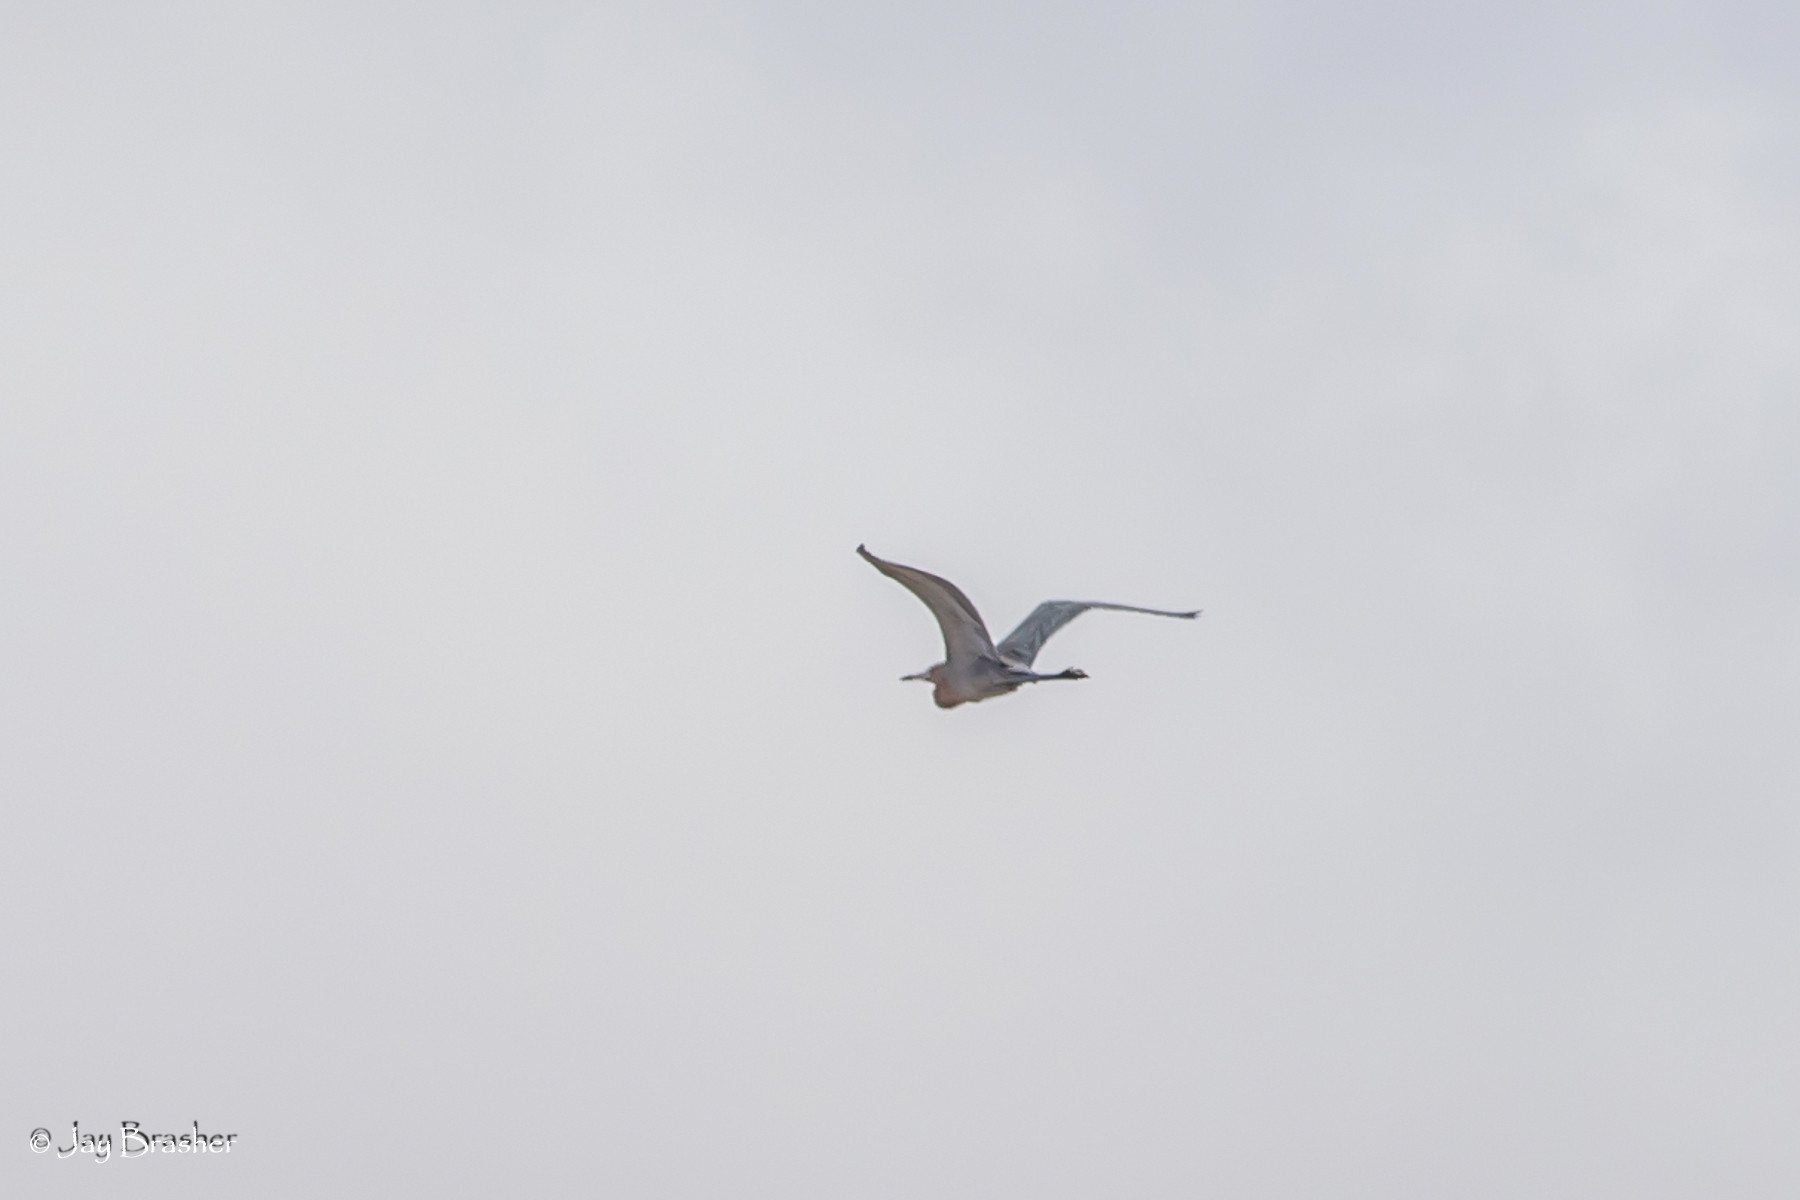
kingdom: Animalia
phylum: Chordata
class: Aves
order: Pelecaniformes
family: Ardeidae
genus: Egretta
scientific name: Egretta rufescens
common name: Reddish egret
